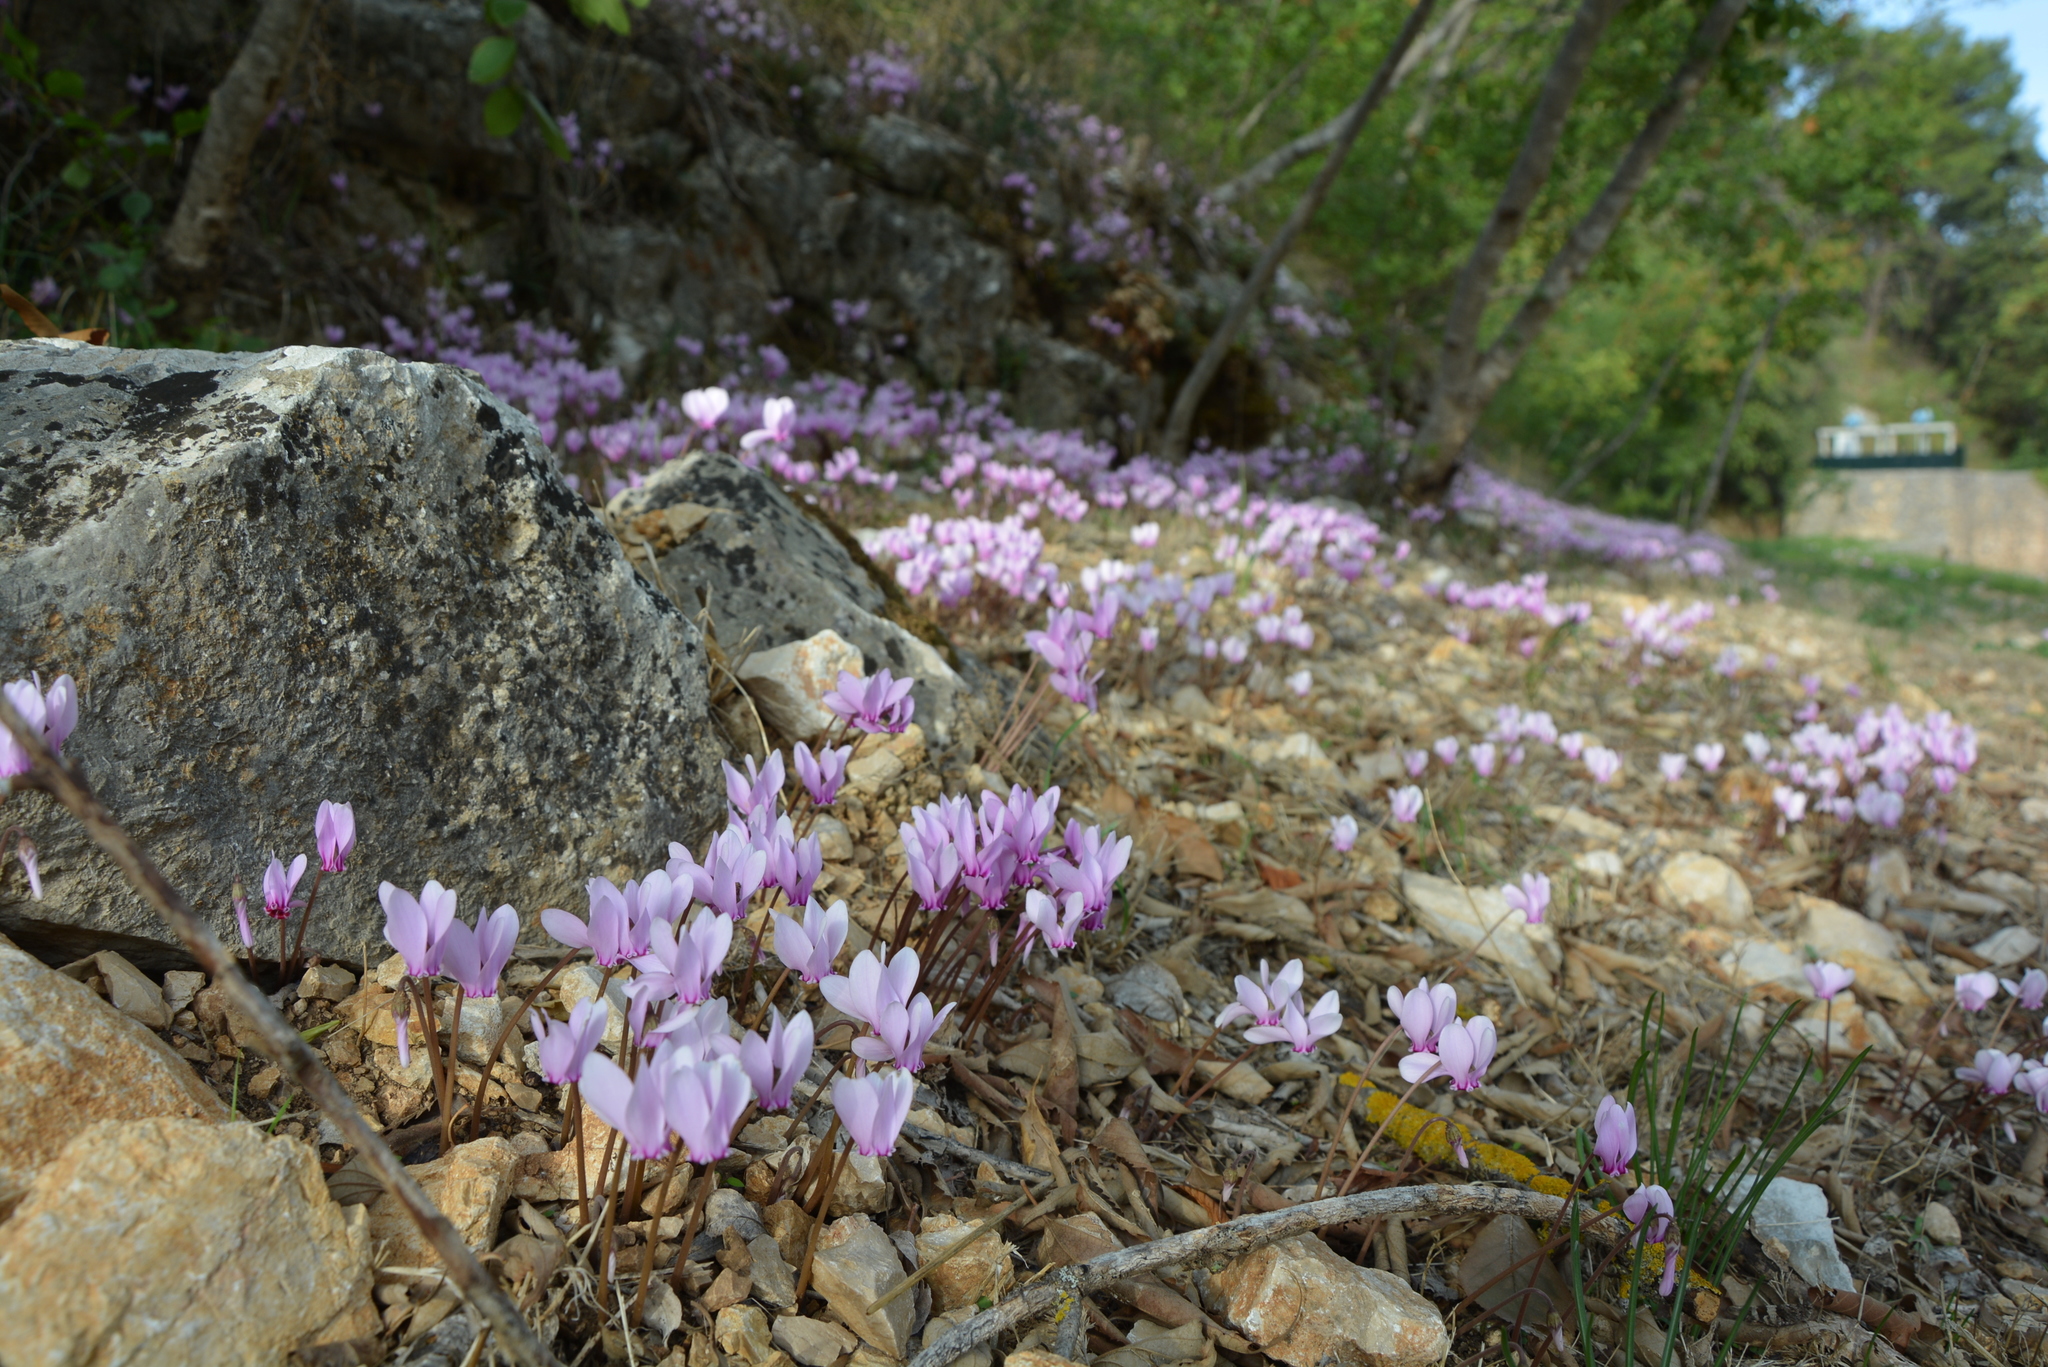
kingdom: Plantae
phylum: Tracheophyta
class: Magnoliopsida
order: Ericales
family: Primulaceae
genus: Cyclamen
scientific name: Cyclamen hederifolium
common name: Sowbread
